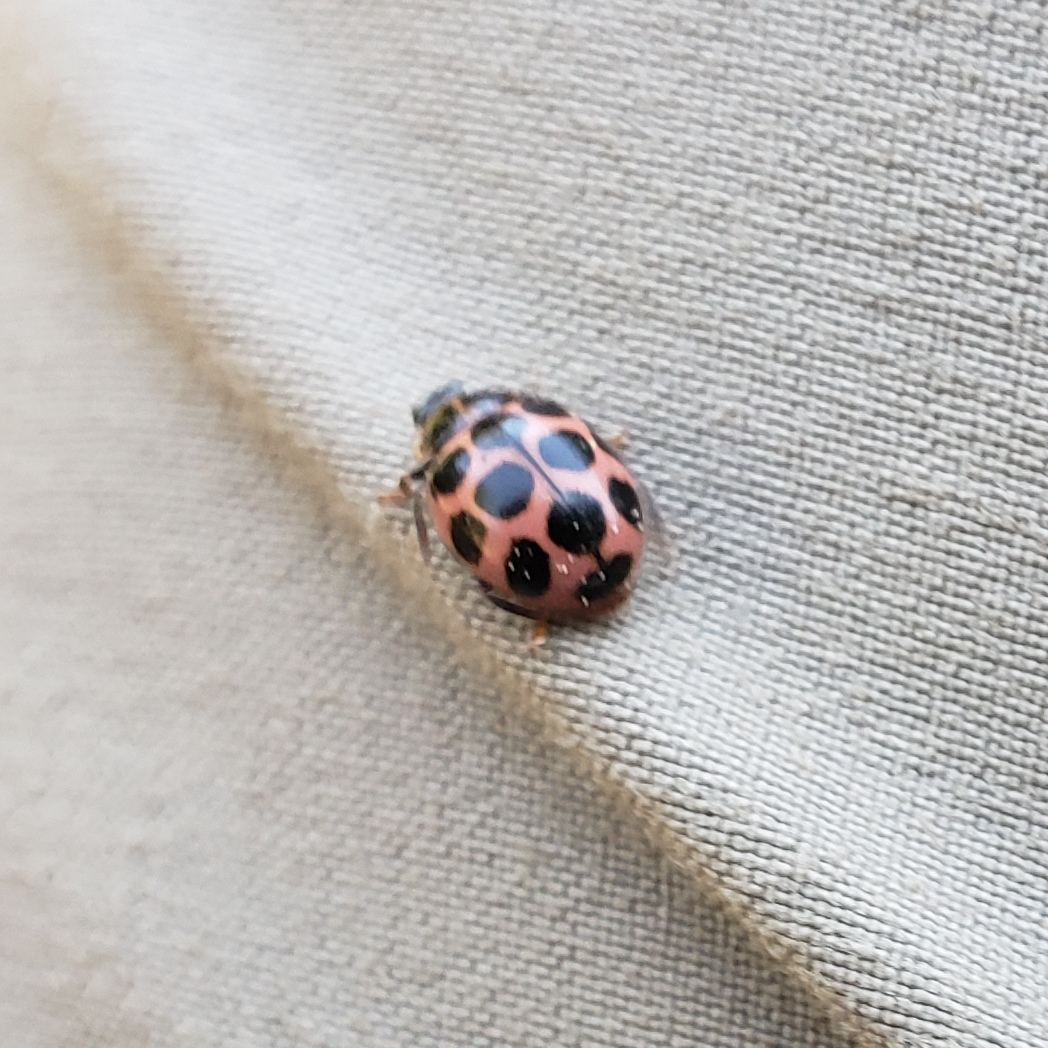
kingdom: Animalia
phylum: Arthropoda
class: Insecta
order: Coleoptera
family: Coccinellidae
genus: Calvia
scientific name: Calvia quatuordecimguttata
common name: Cream-spot ladybird
